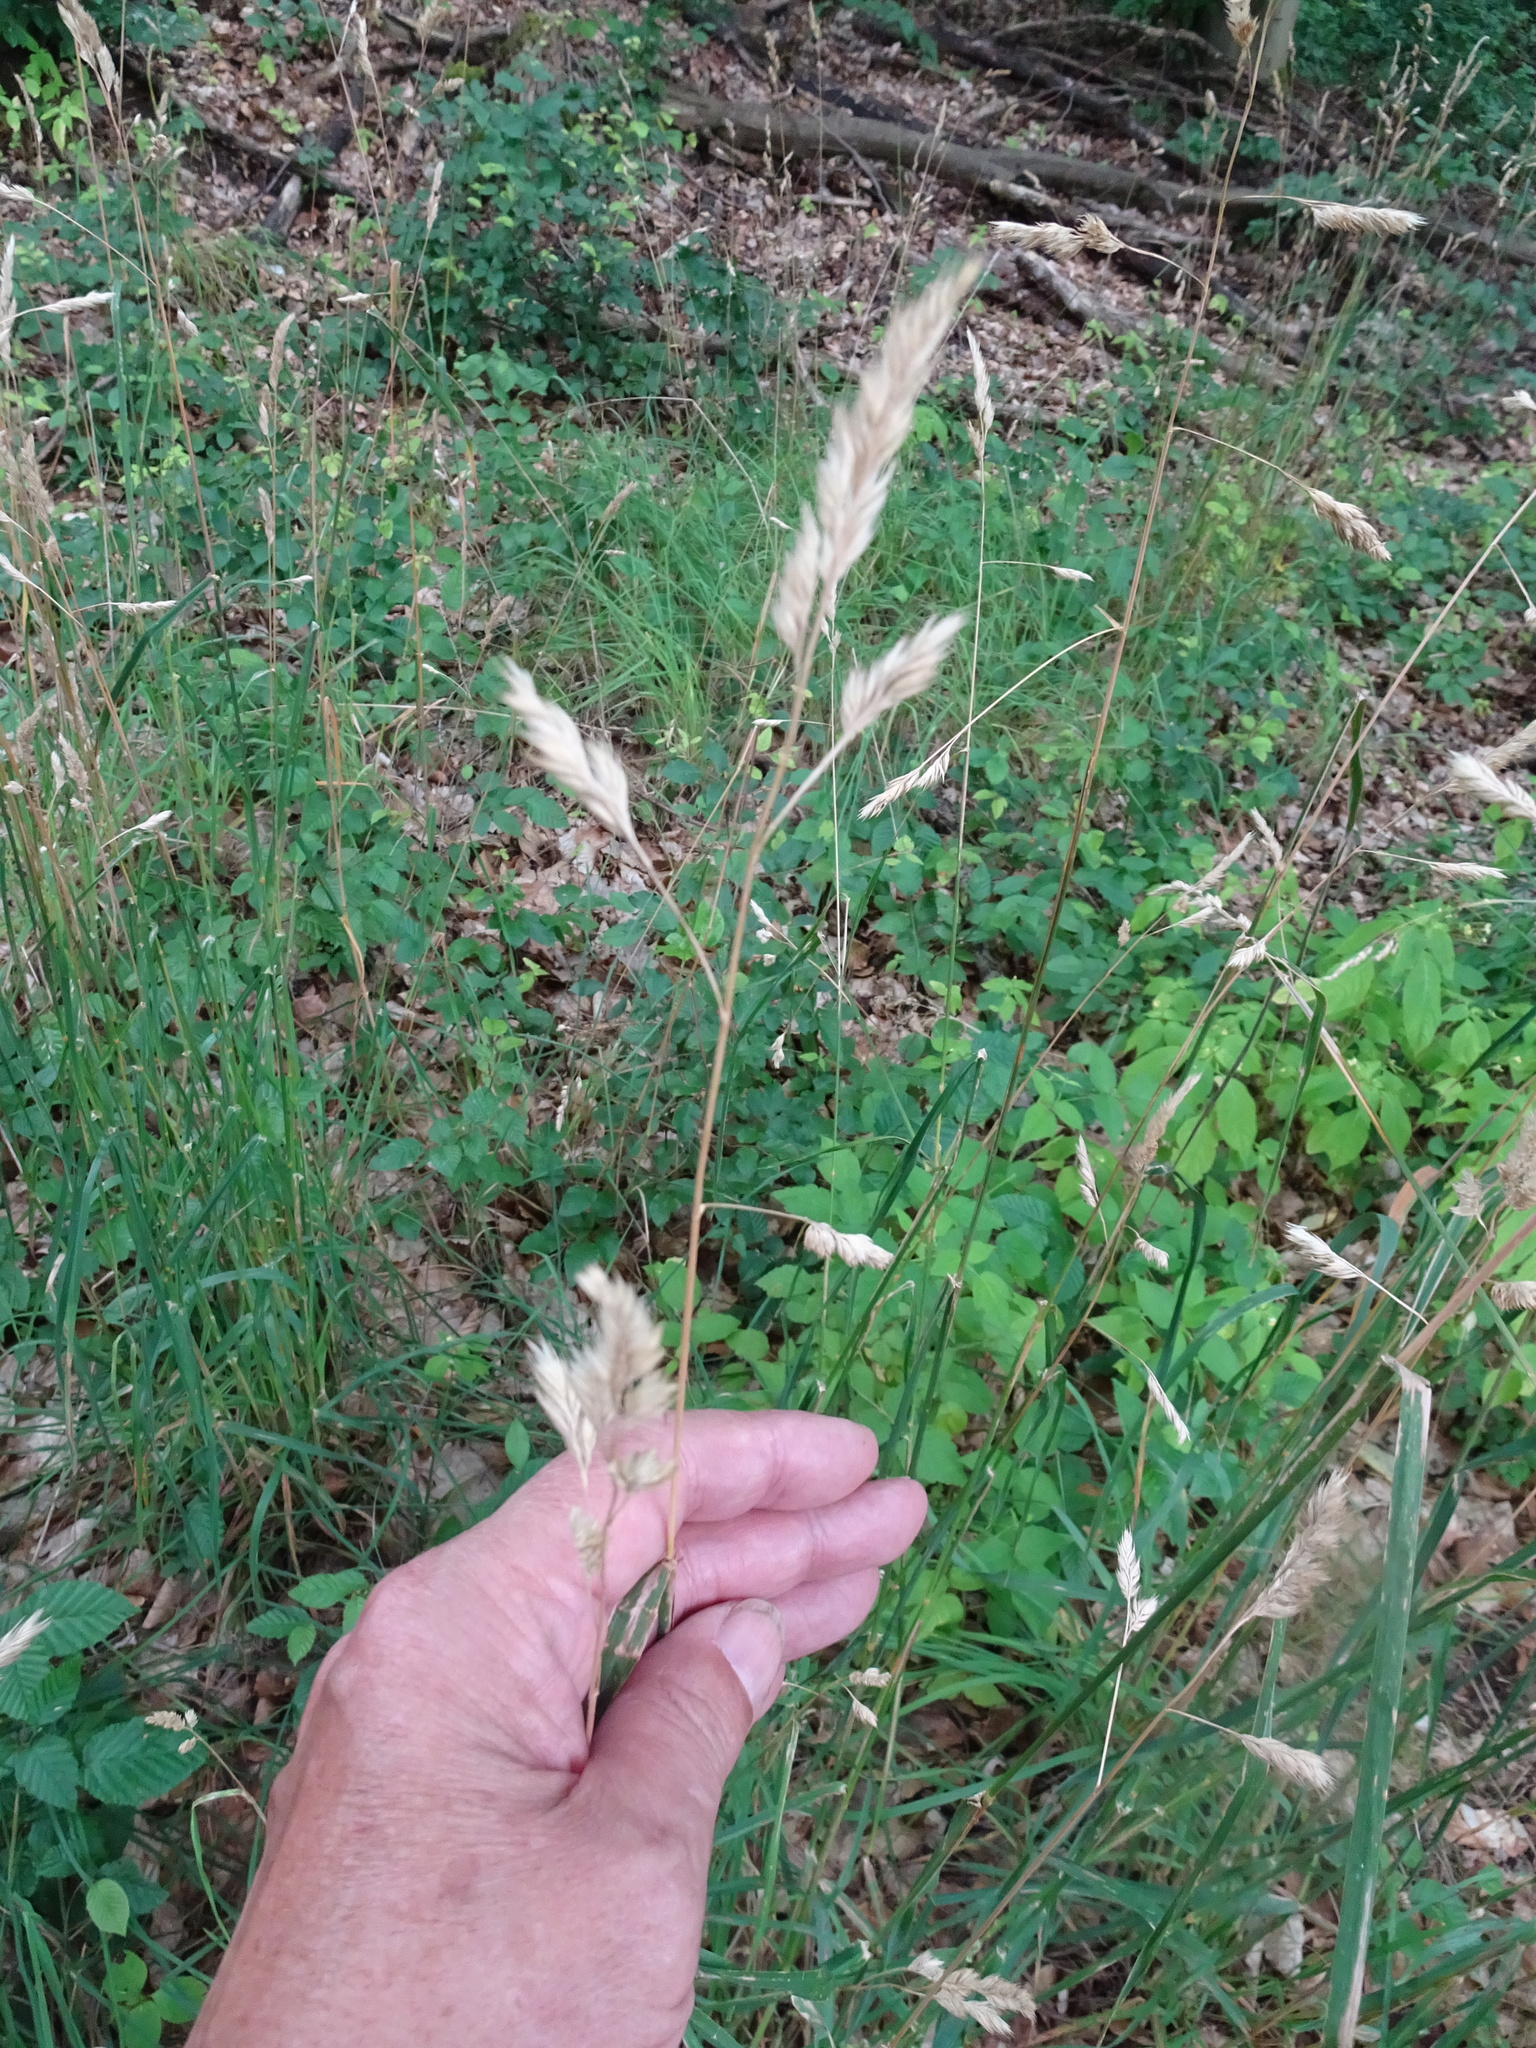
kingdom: Plantae
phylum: Tracheophyta
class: Liliopsida
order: Poales
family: Poaceae
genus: Dactylis
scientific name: Dactylis glomerata
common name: Orchardgrass
